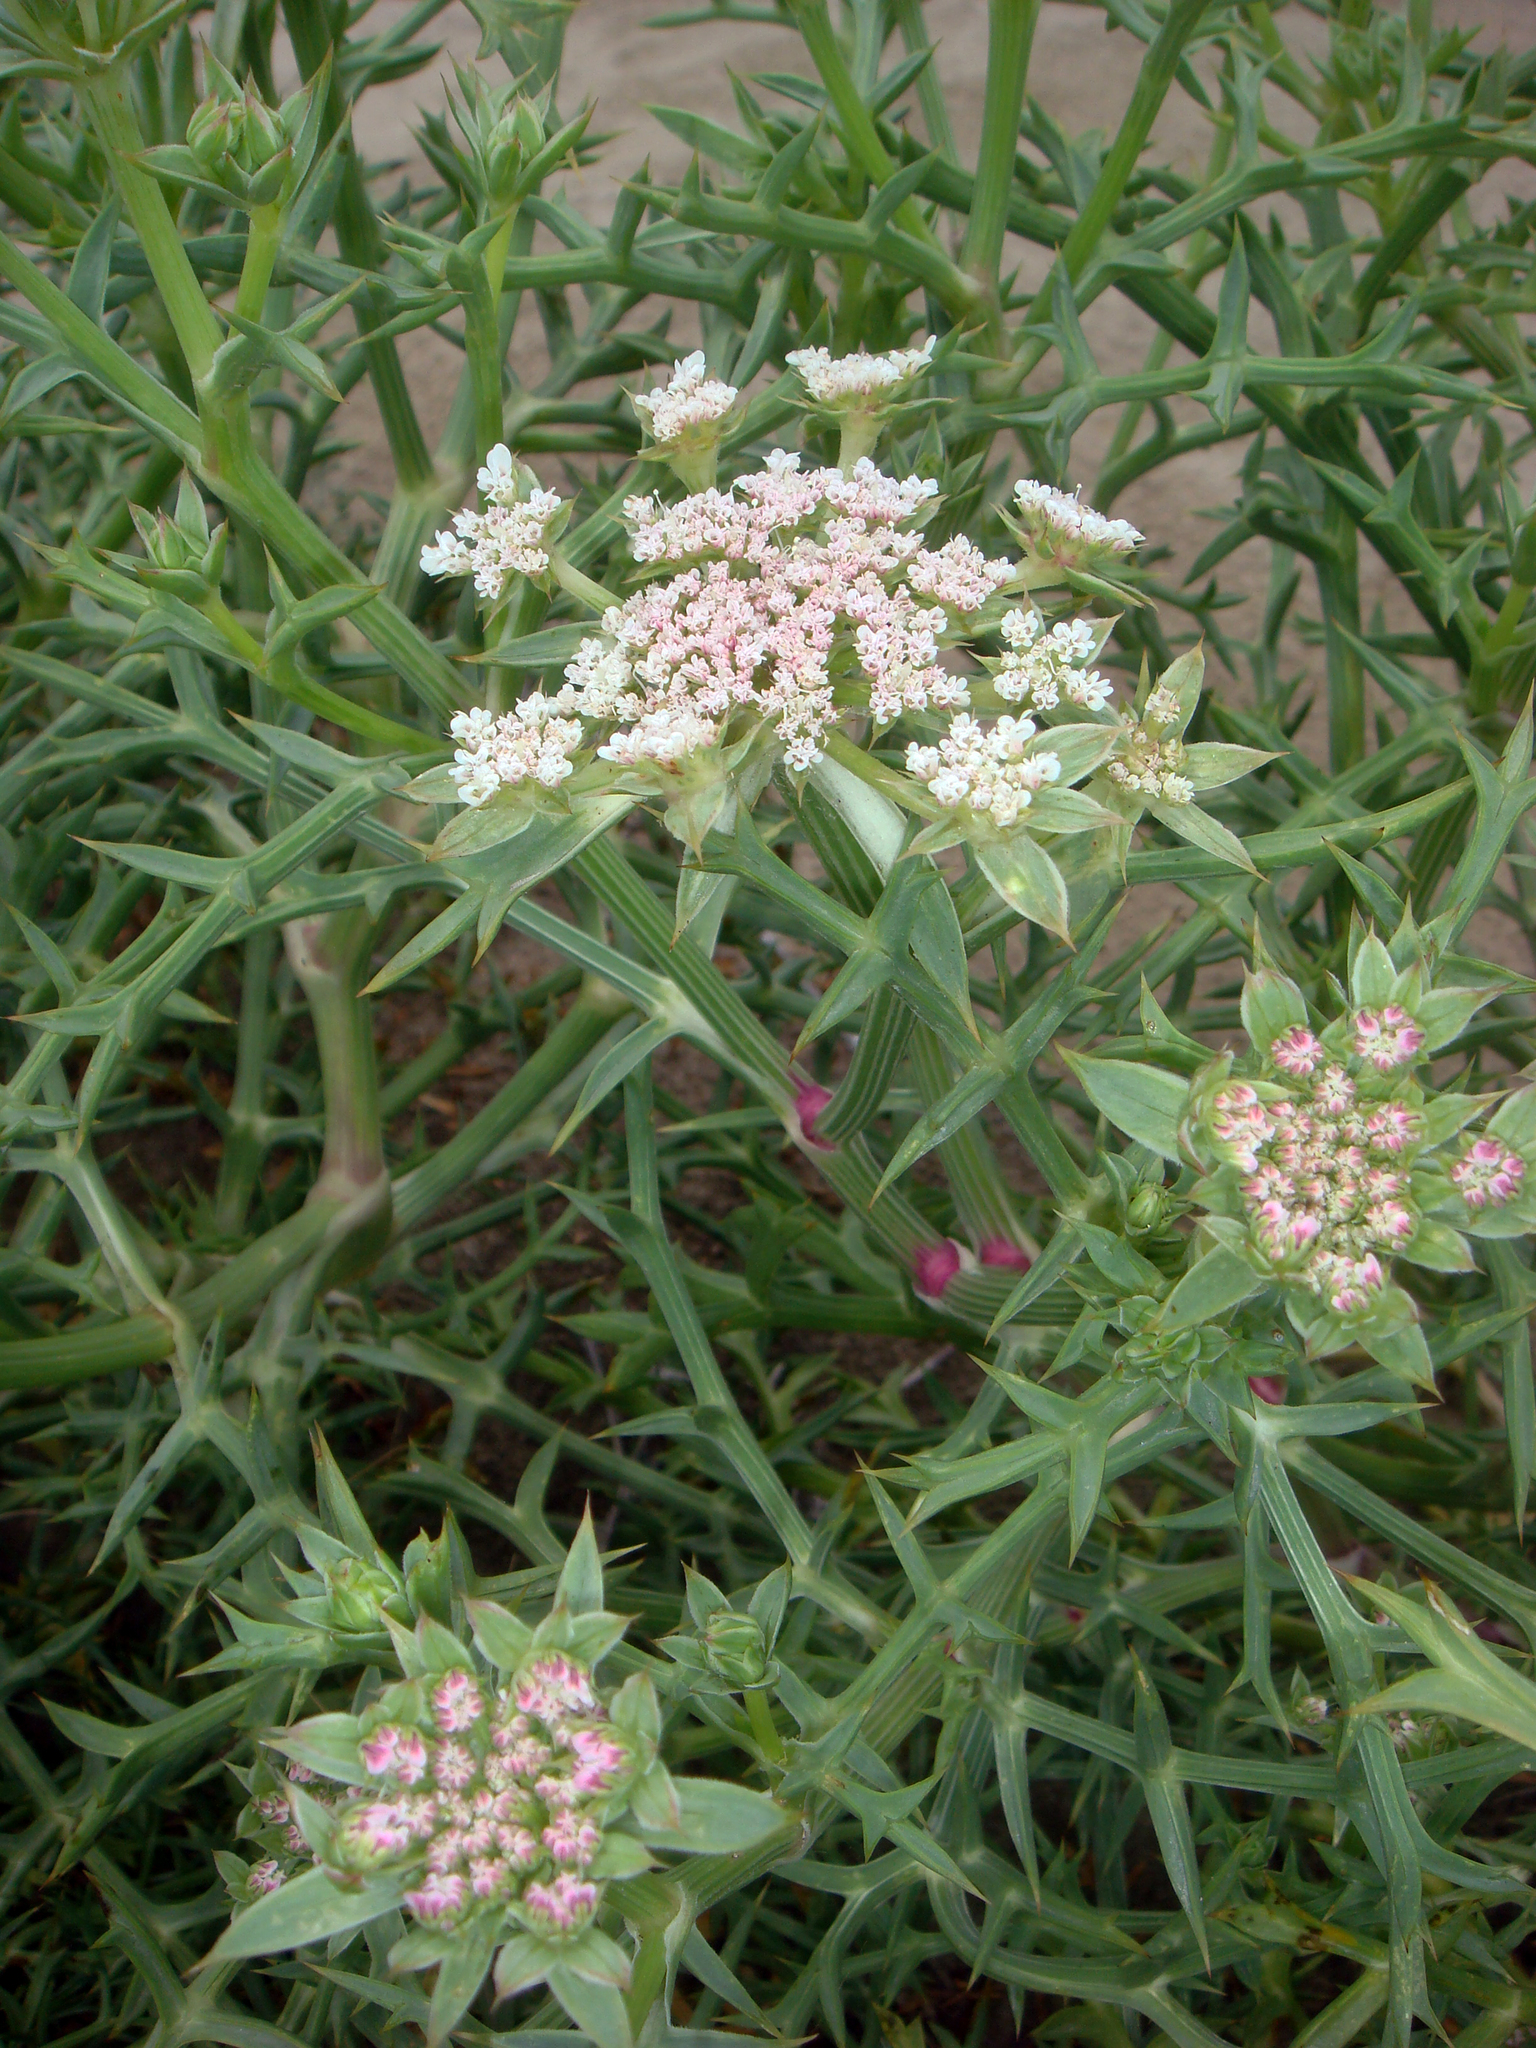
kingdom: Plantae
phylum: Tracheophyta
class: Magnoliopsida
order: Apiales
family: Apiaceae
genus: Echinophora
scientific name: Echinophora spinosa
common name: Prickly samphire
